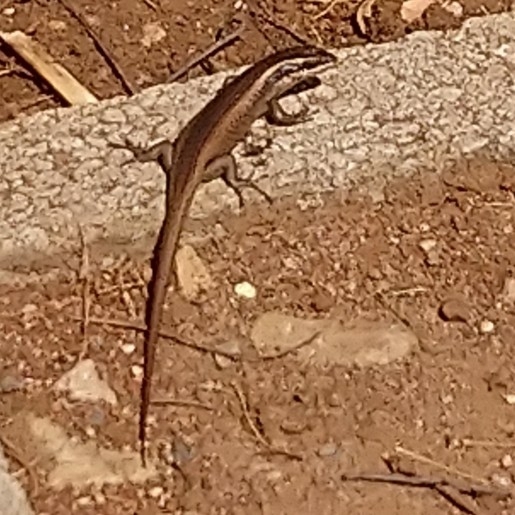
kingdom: Animalia
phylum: Chordata
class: Squamata
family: Scincidae
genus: Trachylepis
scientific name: Trachylepis punctatissima
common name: Montane speckled skink
